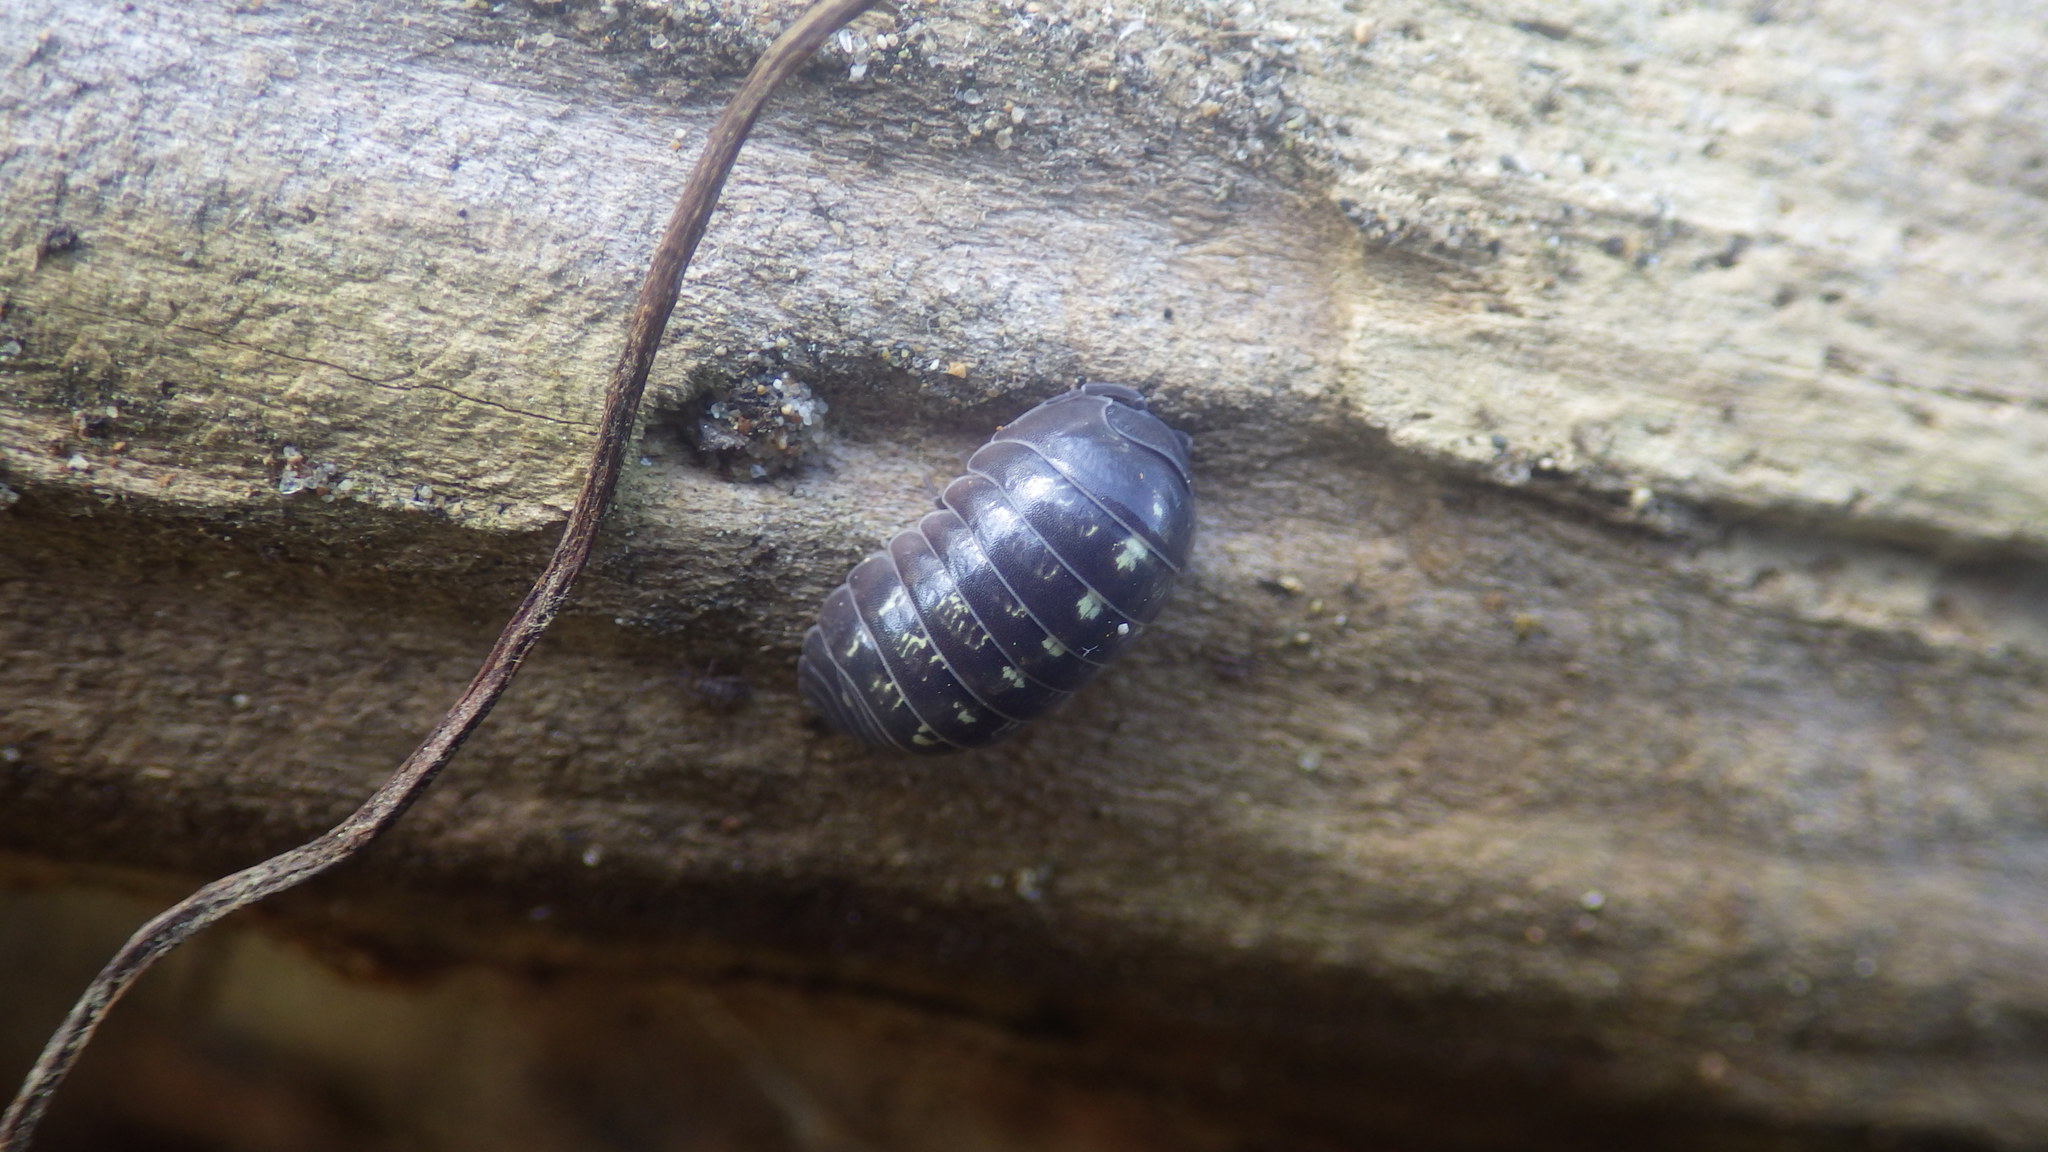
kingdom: Animalia
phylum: Arthropoda
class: Malacostraca
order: Isopoda
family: Armadillidiidae
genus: Armadillidium
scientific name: Armadillidium vulgare
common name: Common pill woodlouse
